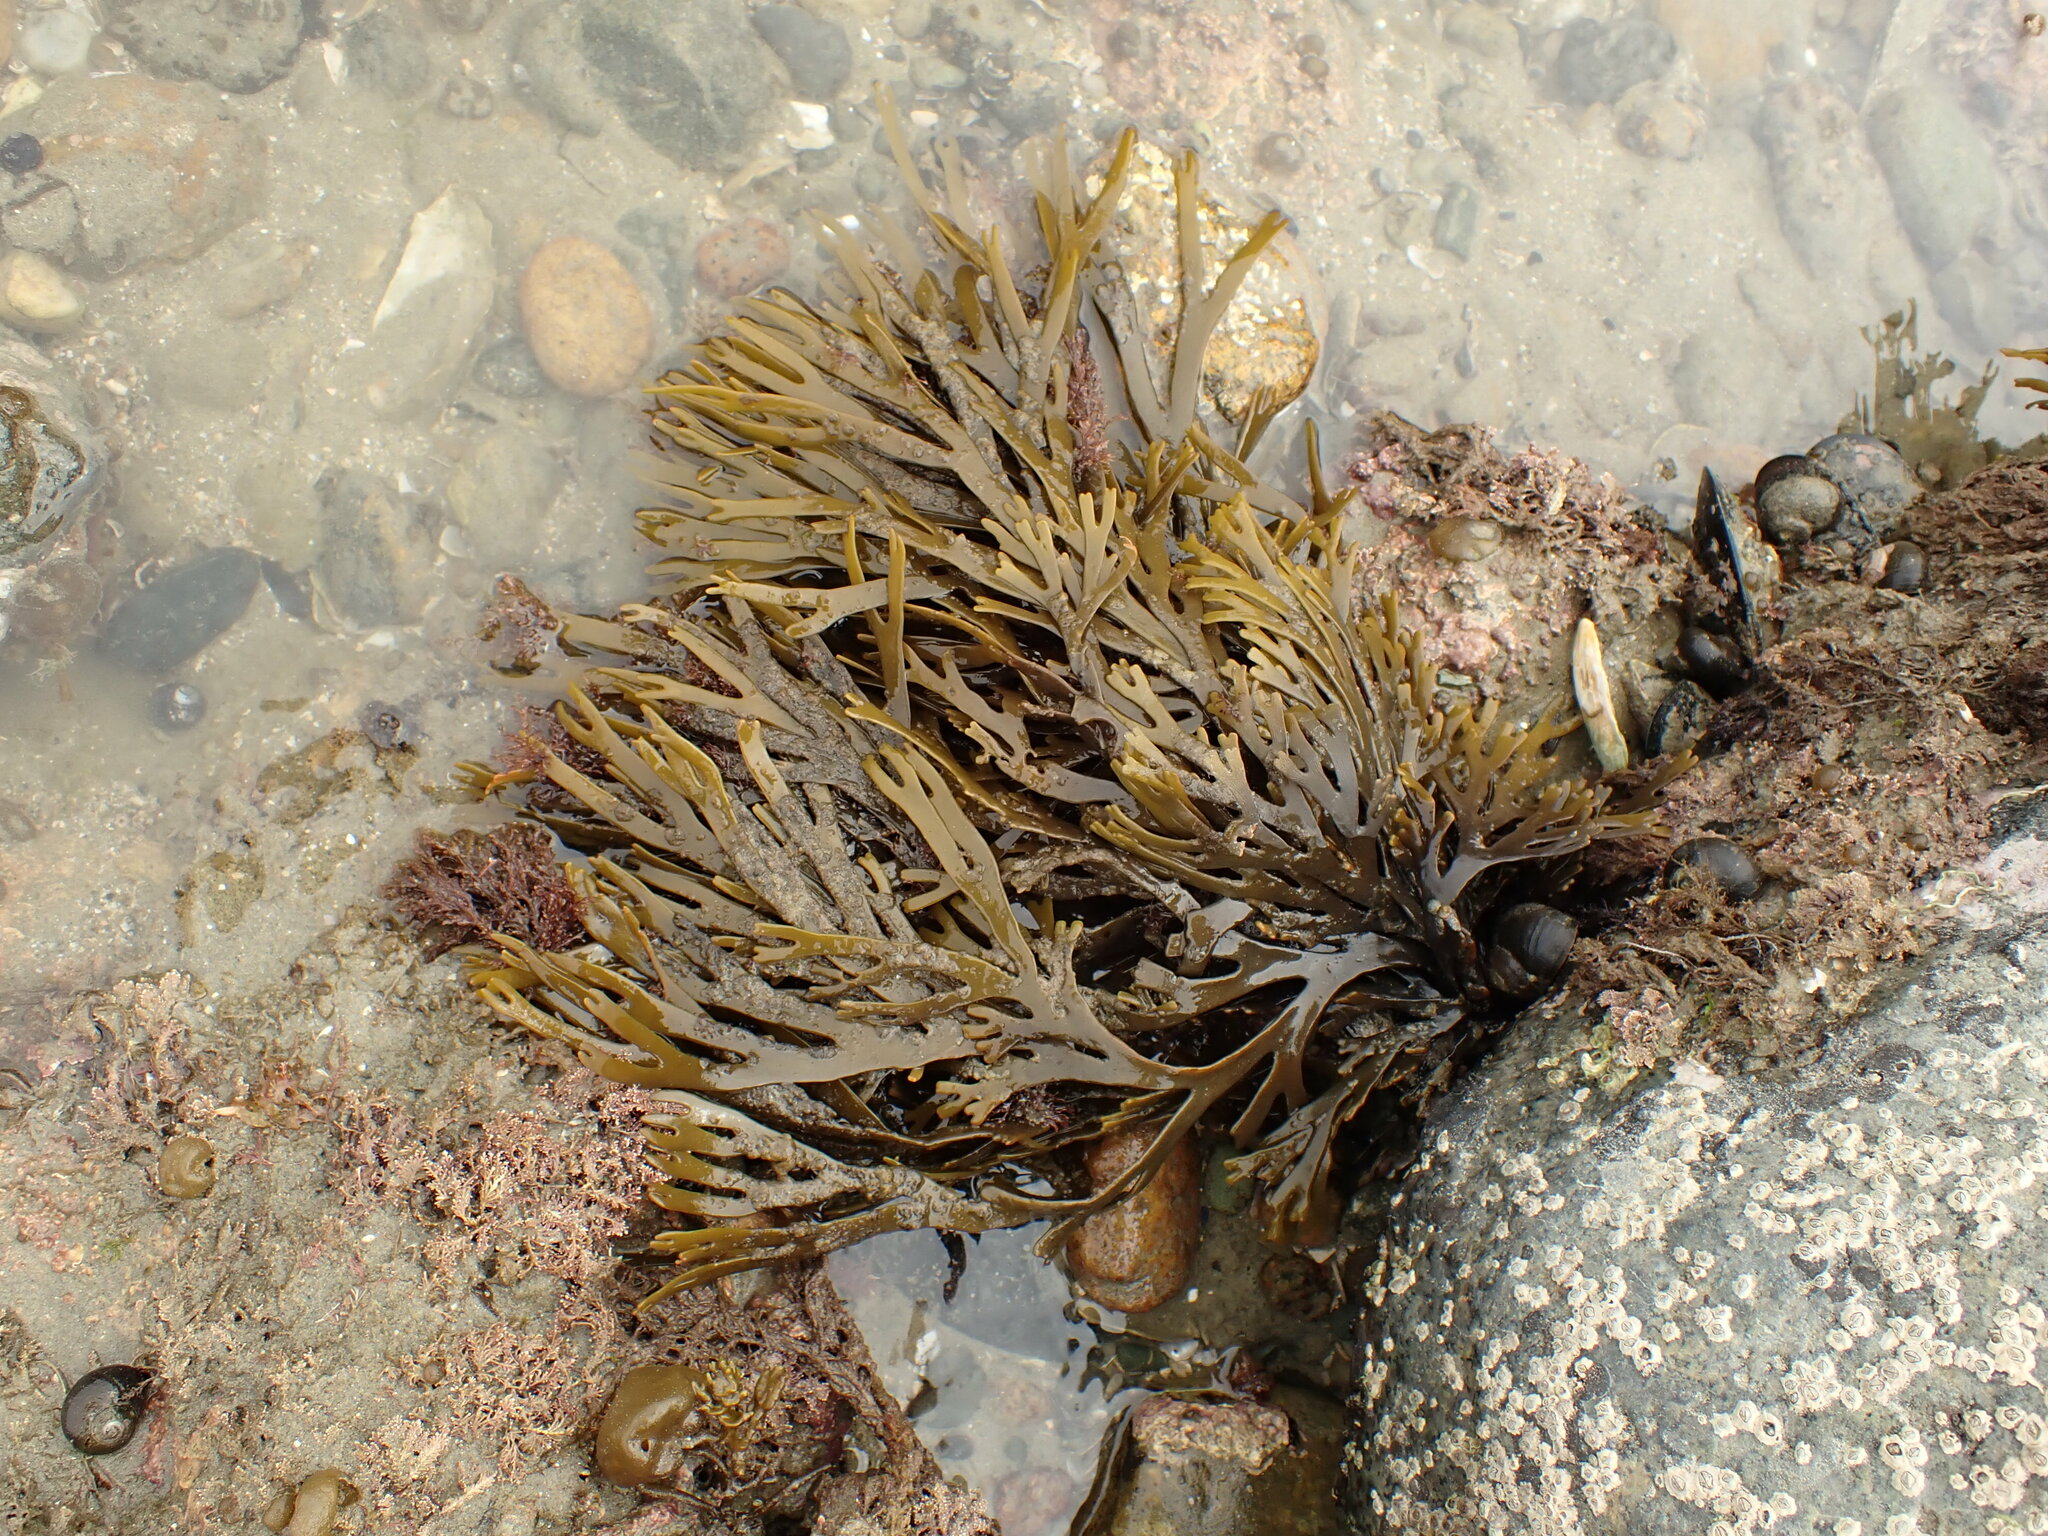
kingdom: Chromista
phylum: Ochrophyta
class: Phaeophyceae
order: Fucales
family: Xiphophoraceae
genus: Xiphophora
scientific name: Xiphophora gladiata
